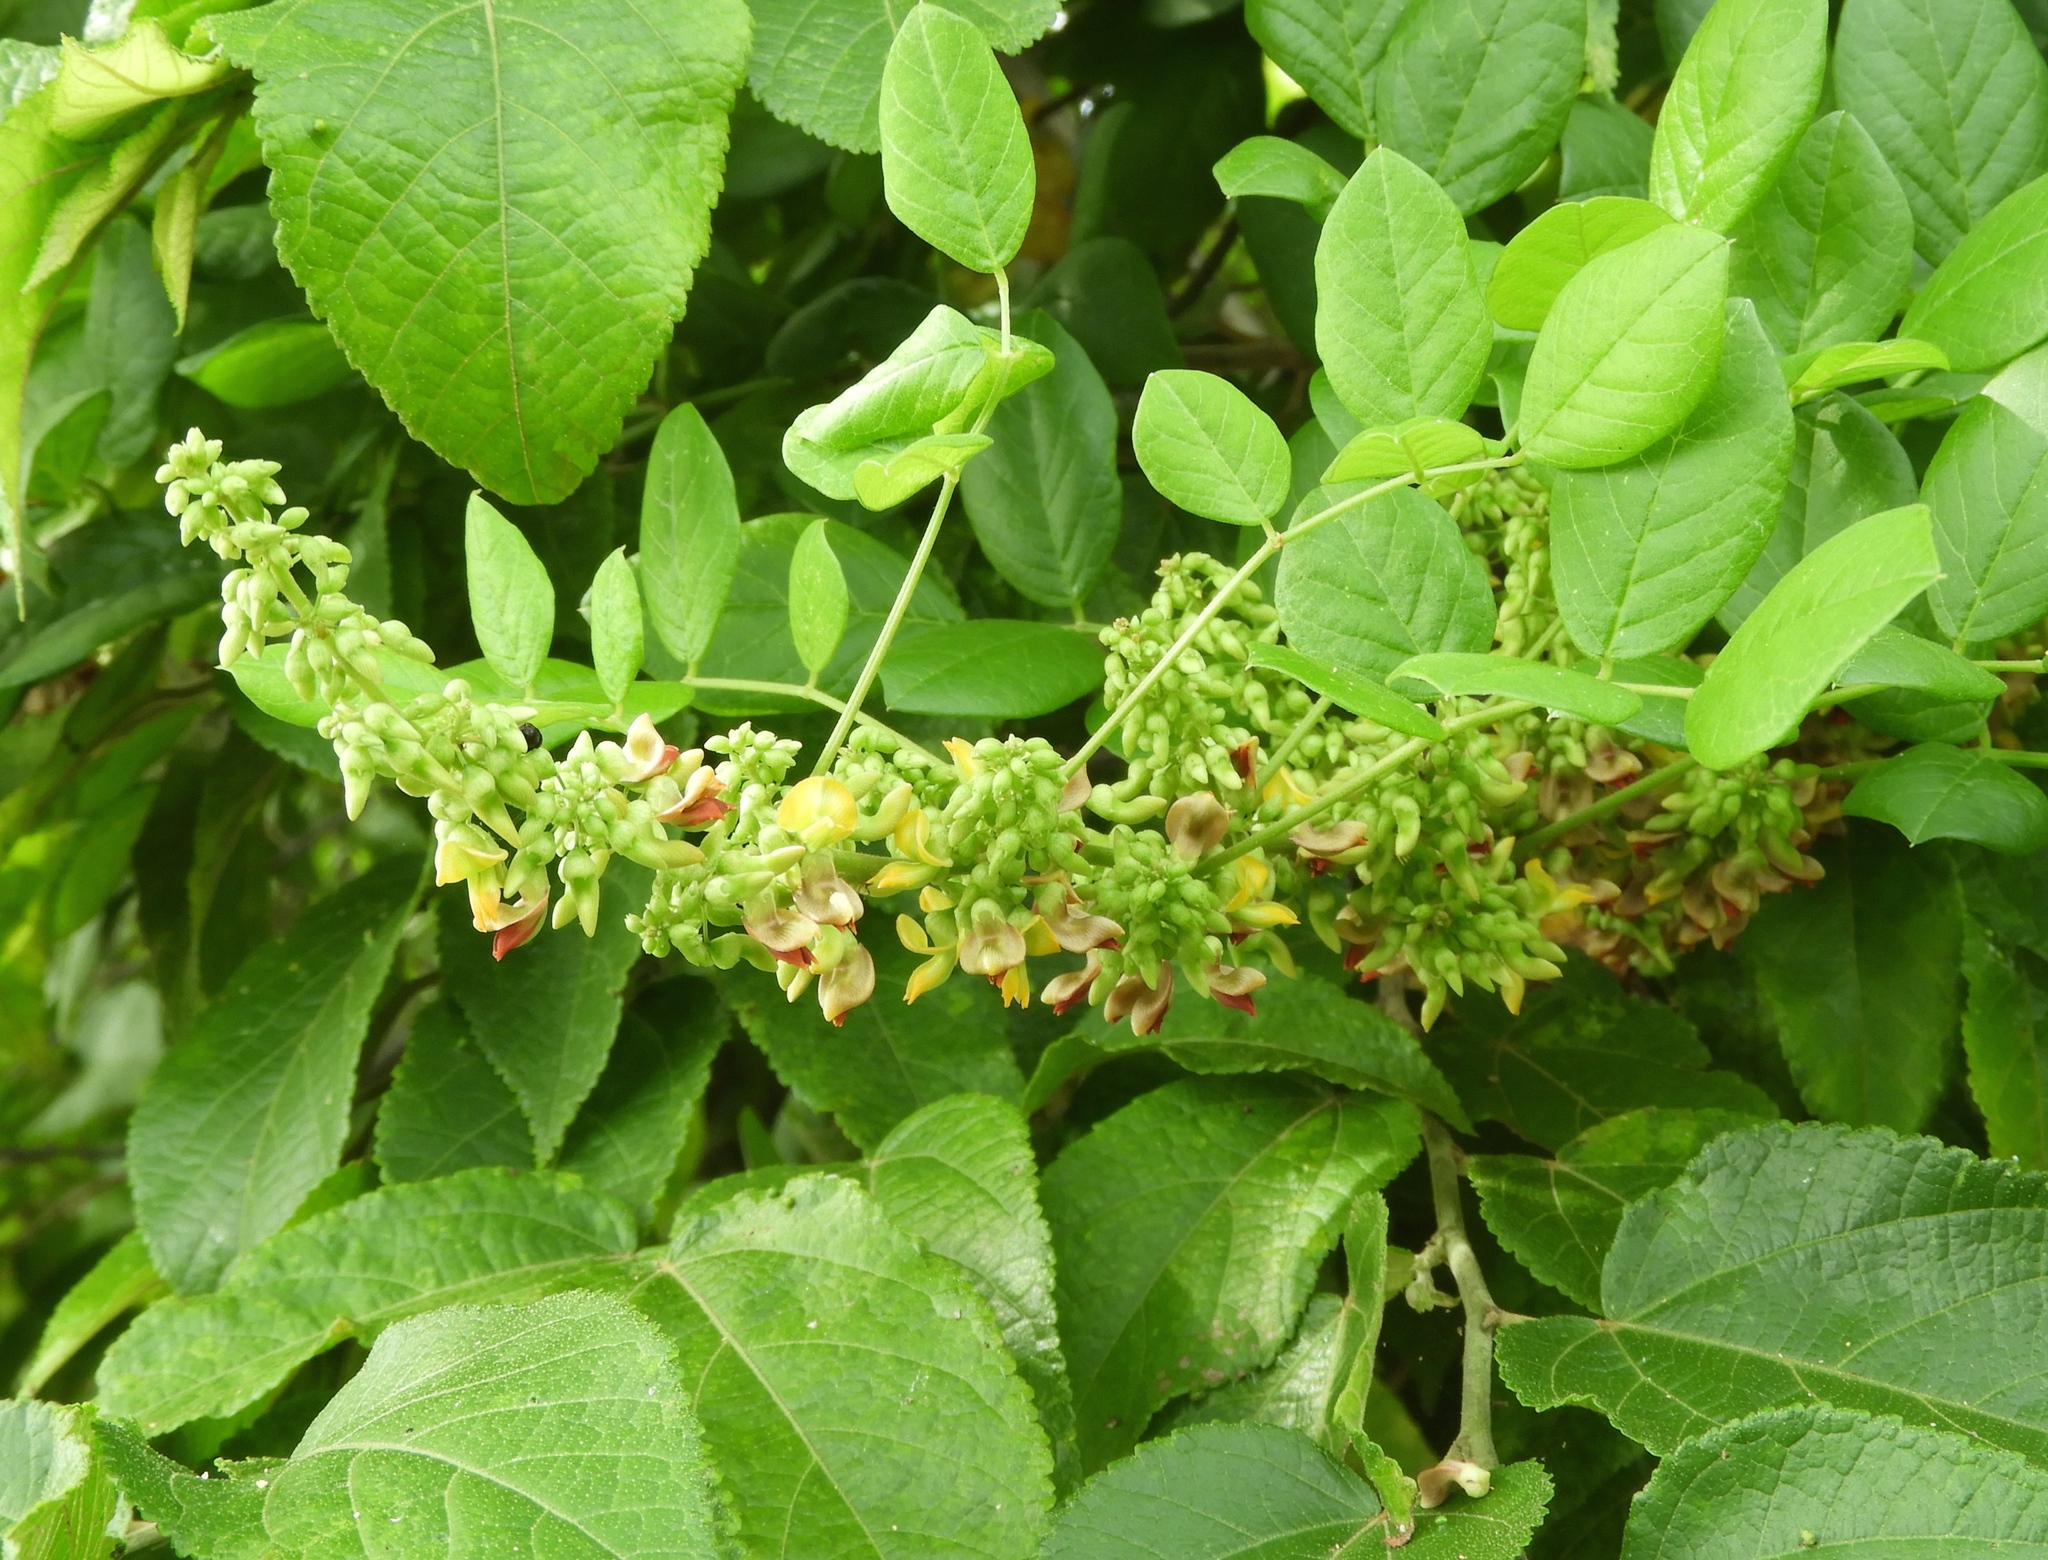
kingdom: Plantae
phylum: Tracheophyta
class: Magnoliopsida
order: Fabales
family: Fabaceae
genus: Nissolia
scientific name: Nissolia fruticosa
